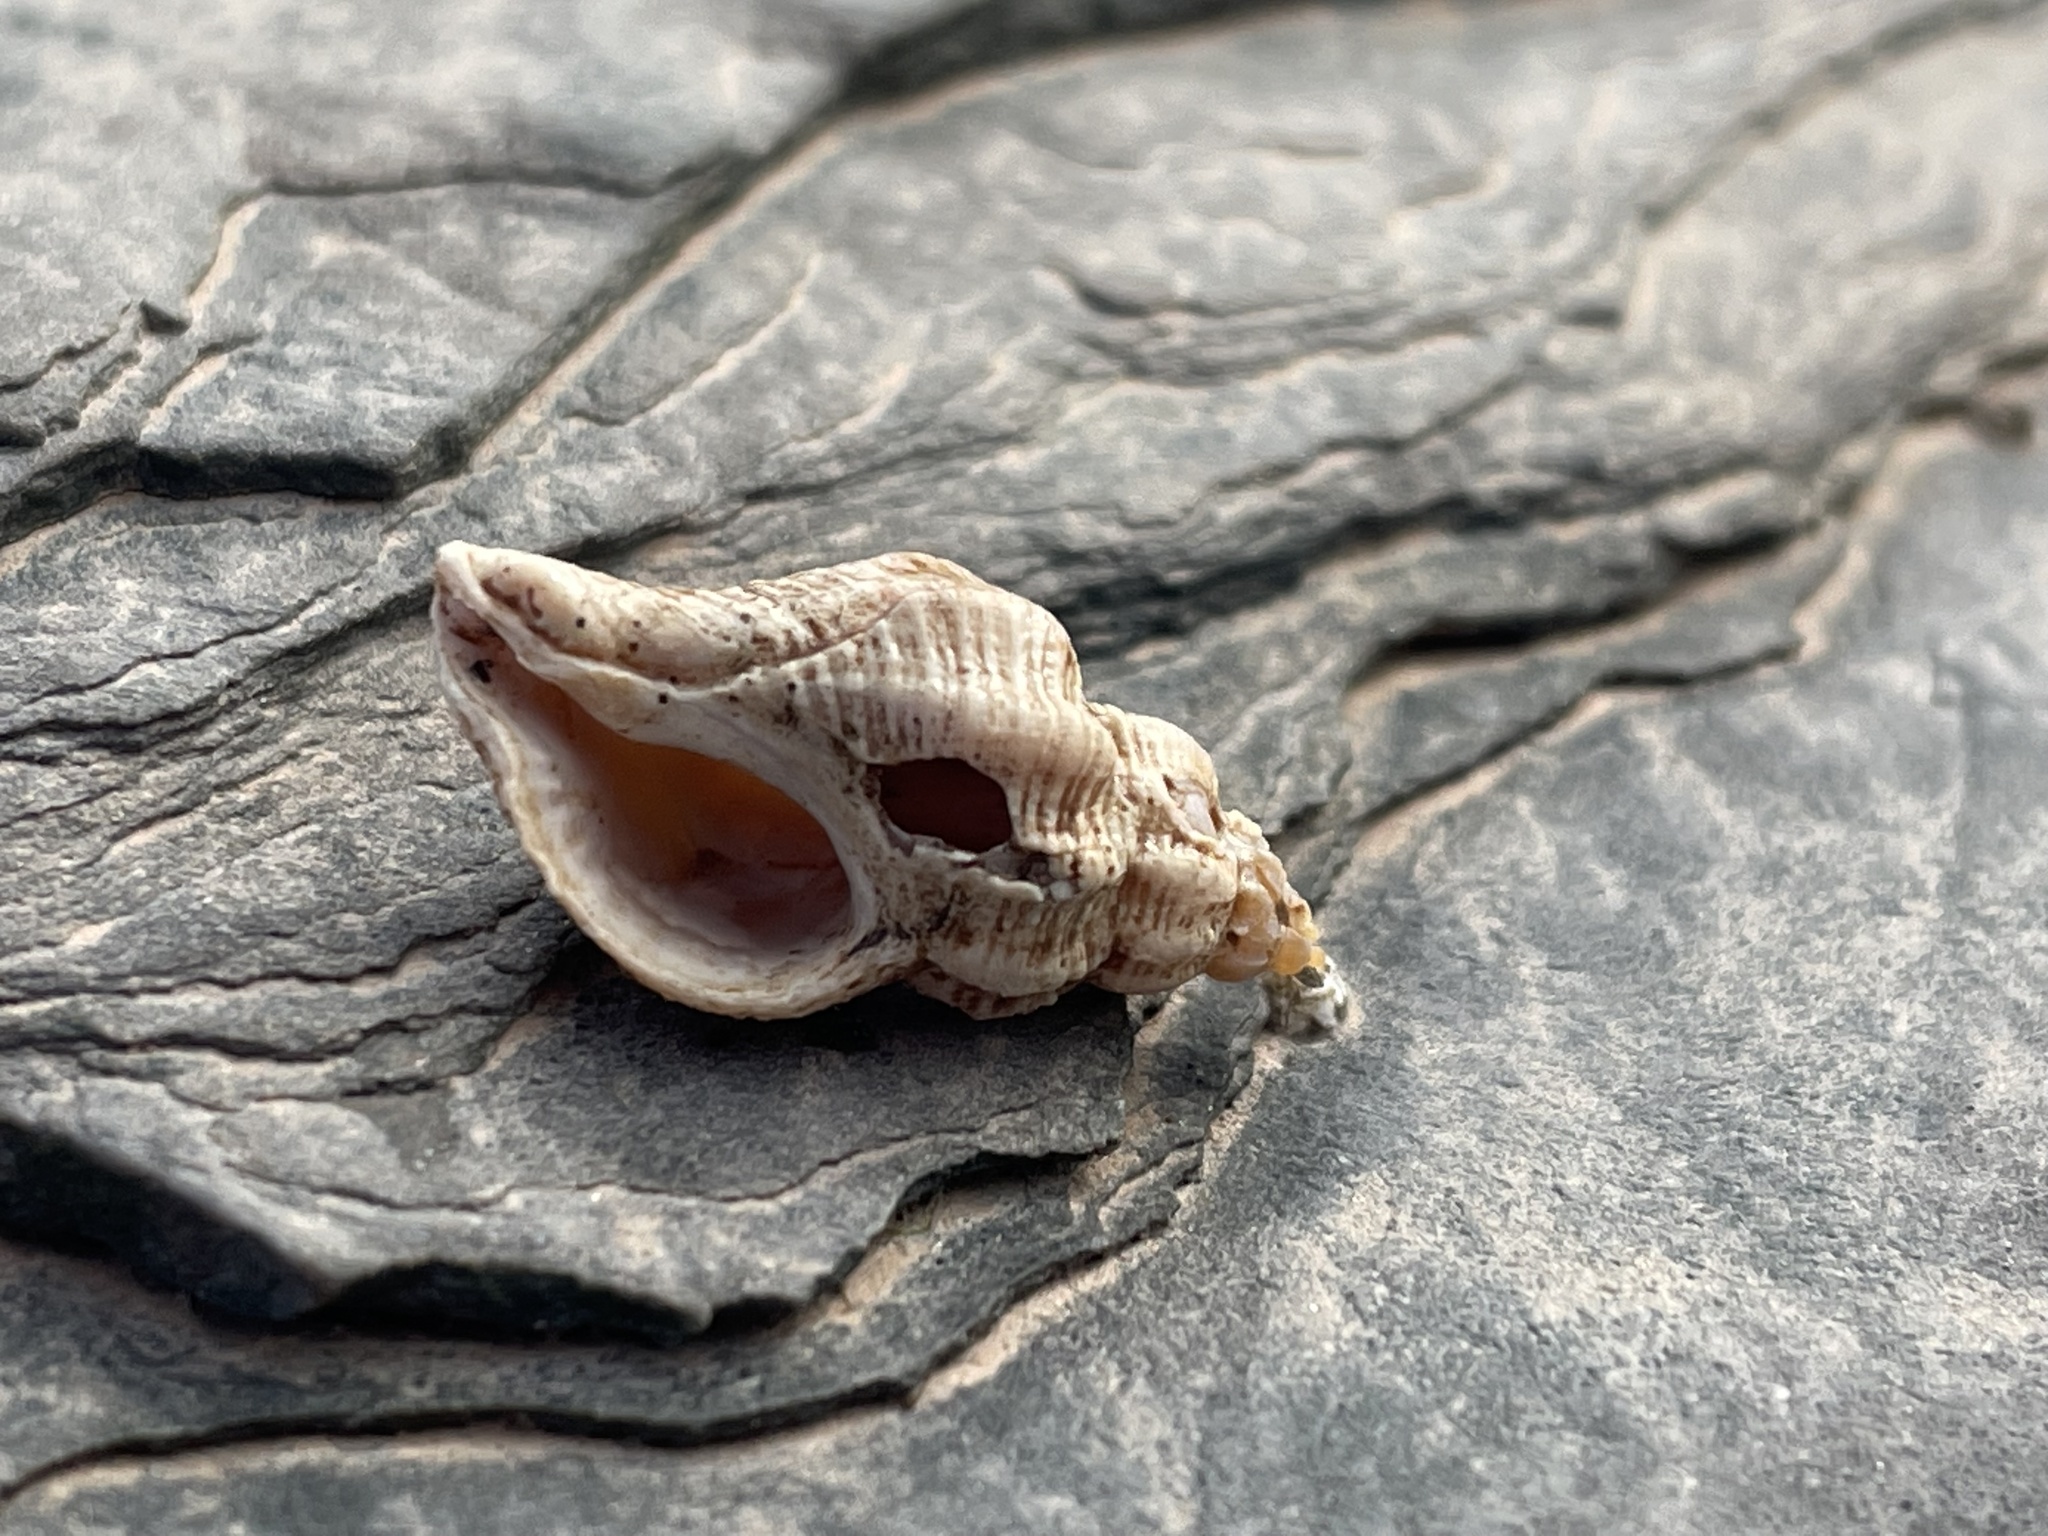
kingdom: Animalia
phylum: Mollusca
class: Gastropoda
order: Neogastropoda
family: Muricidae
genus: Urosalpinx
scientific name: Urosalpinx cinerea
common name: American sting winkle
